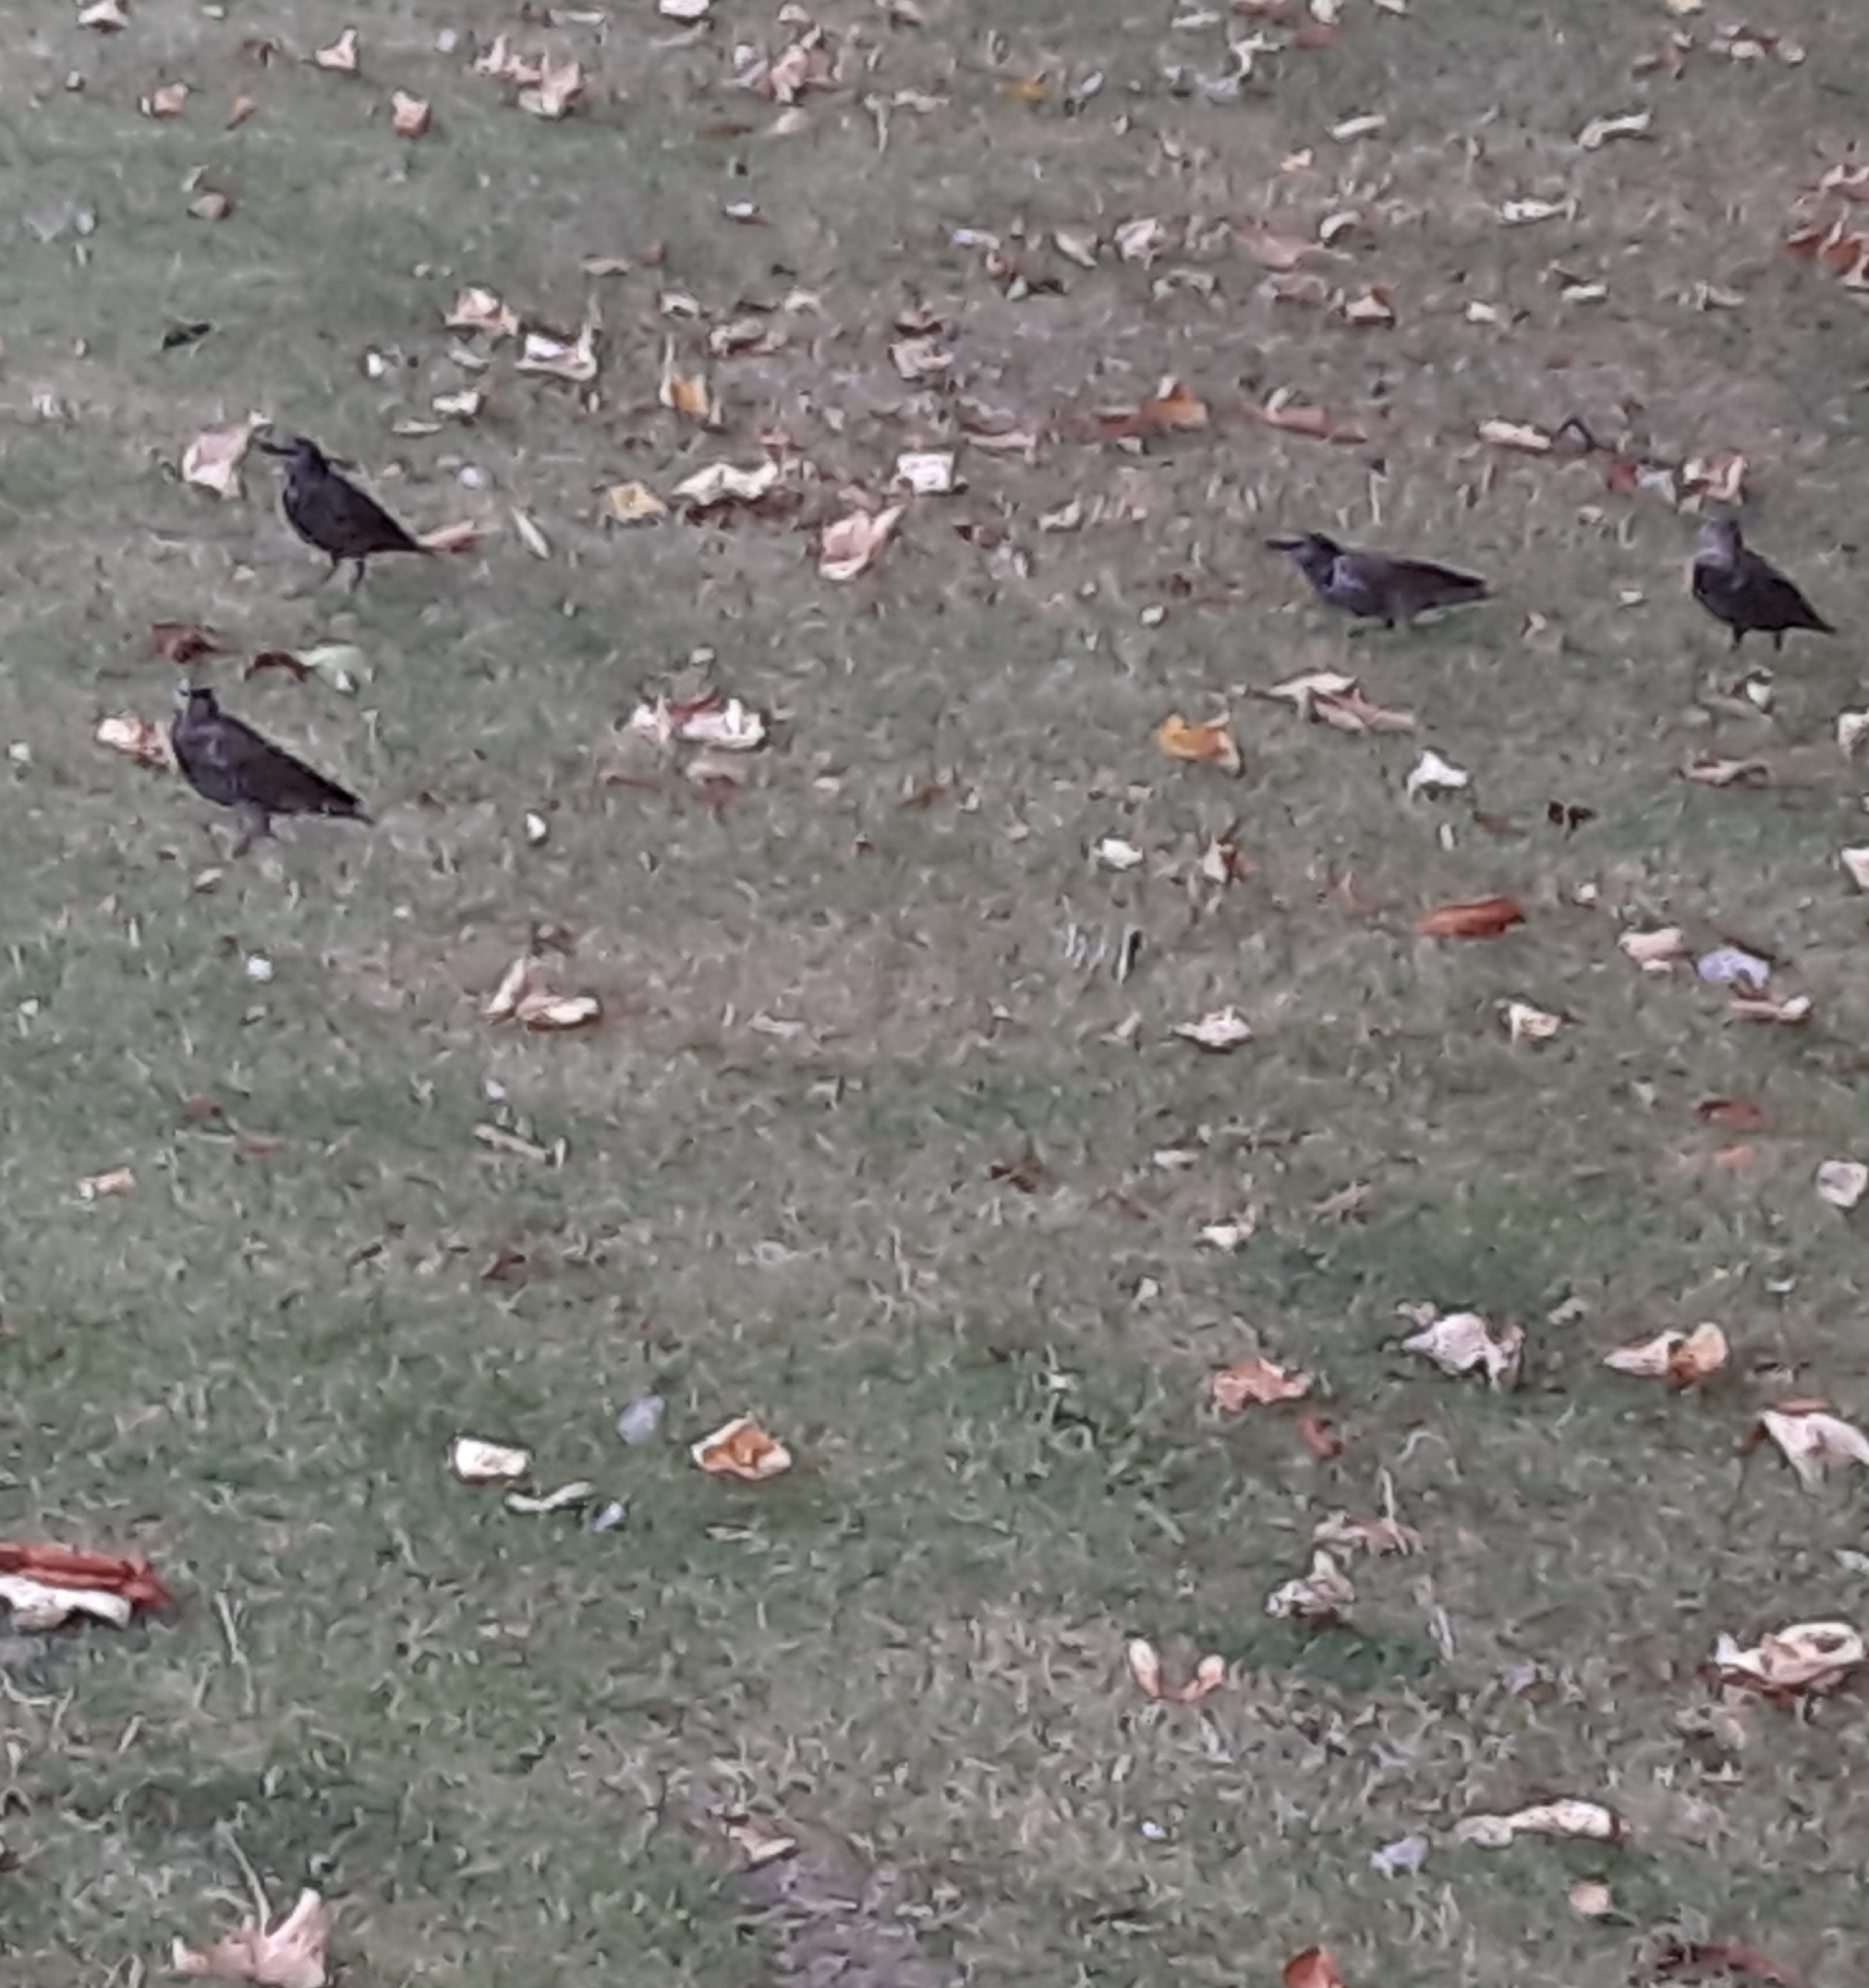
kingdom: Animalia
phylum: Chordata
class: Aves
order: Passeriformes
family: Sturnidae
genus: Sturnus
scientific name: Sturnus vulgaris
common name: Common starling
